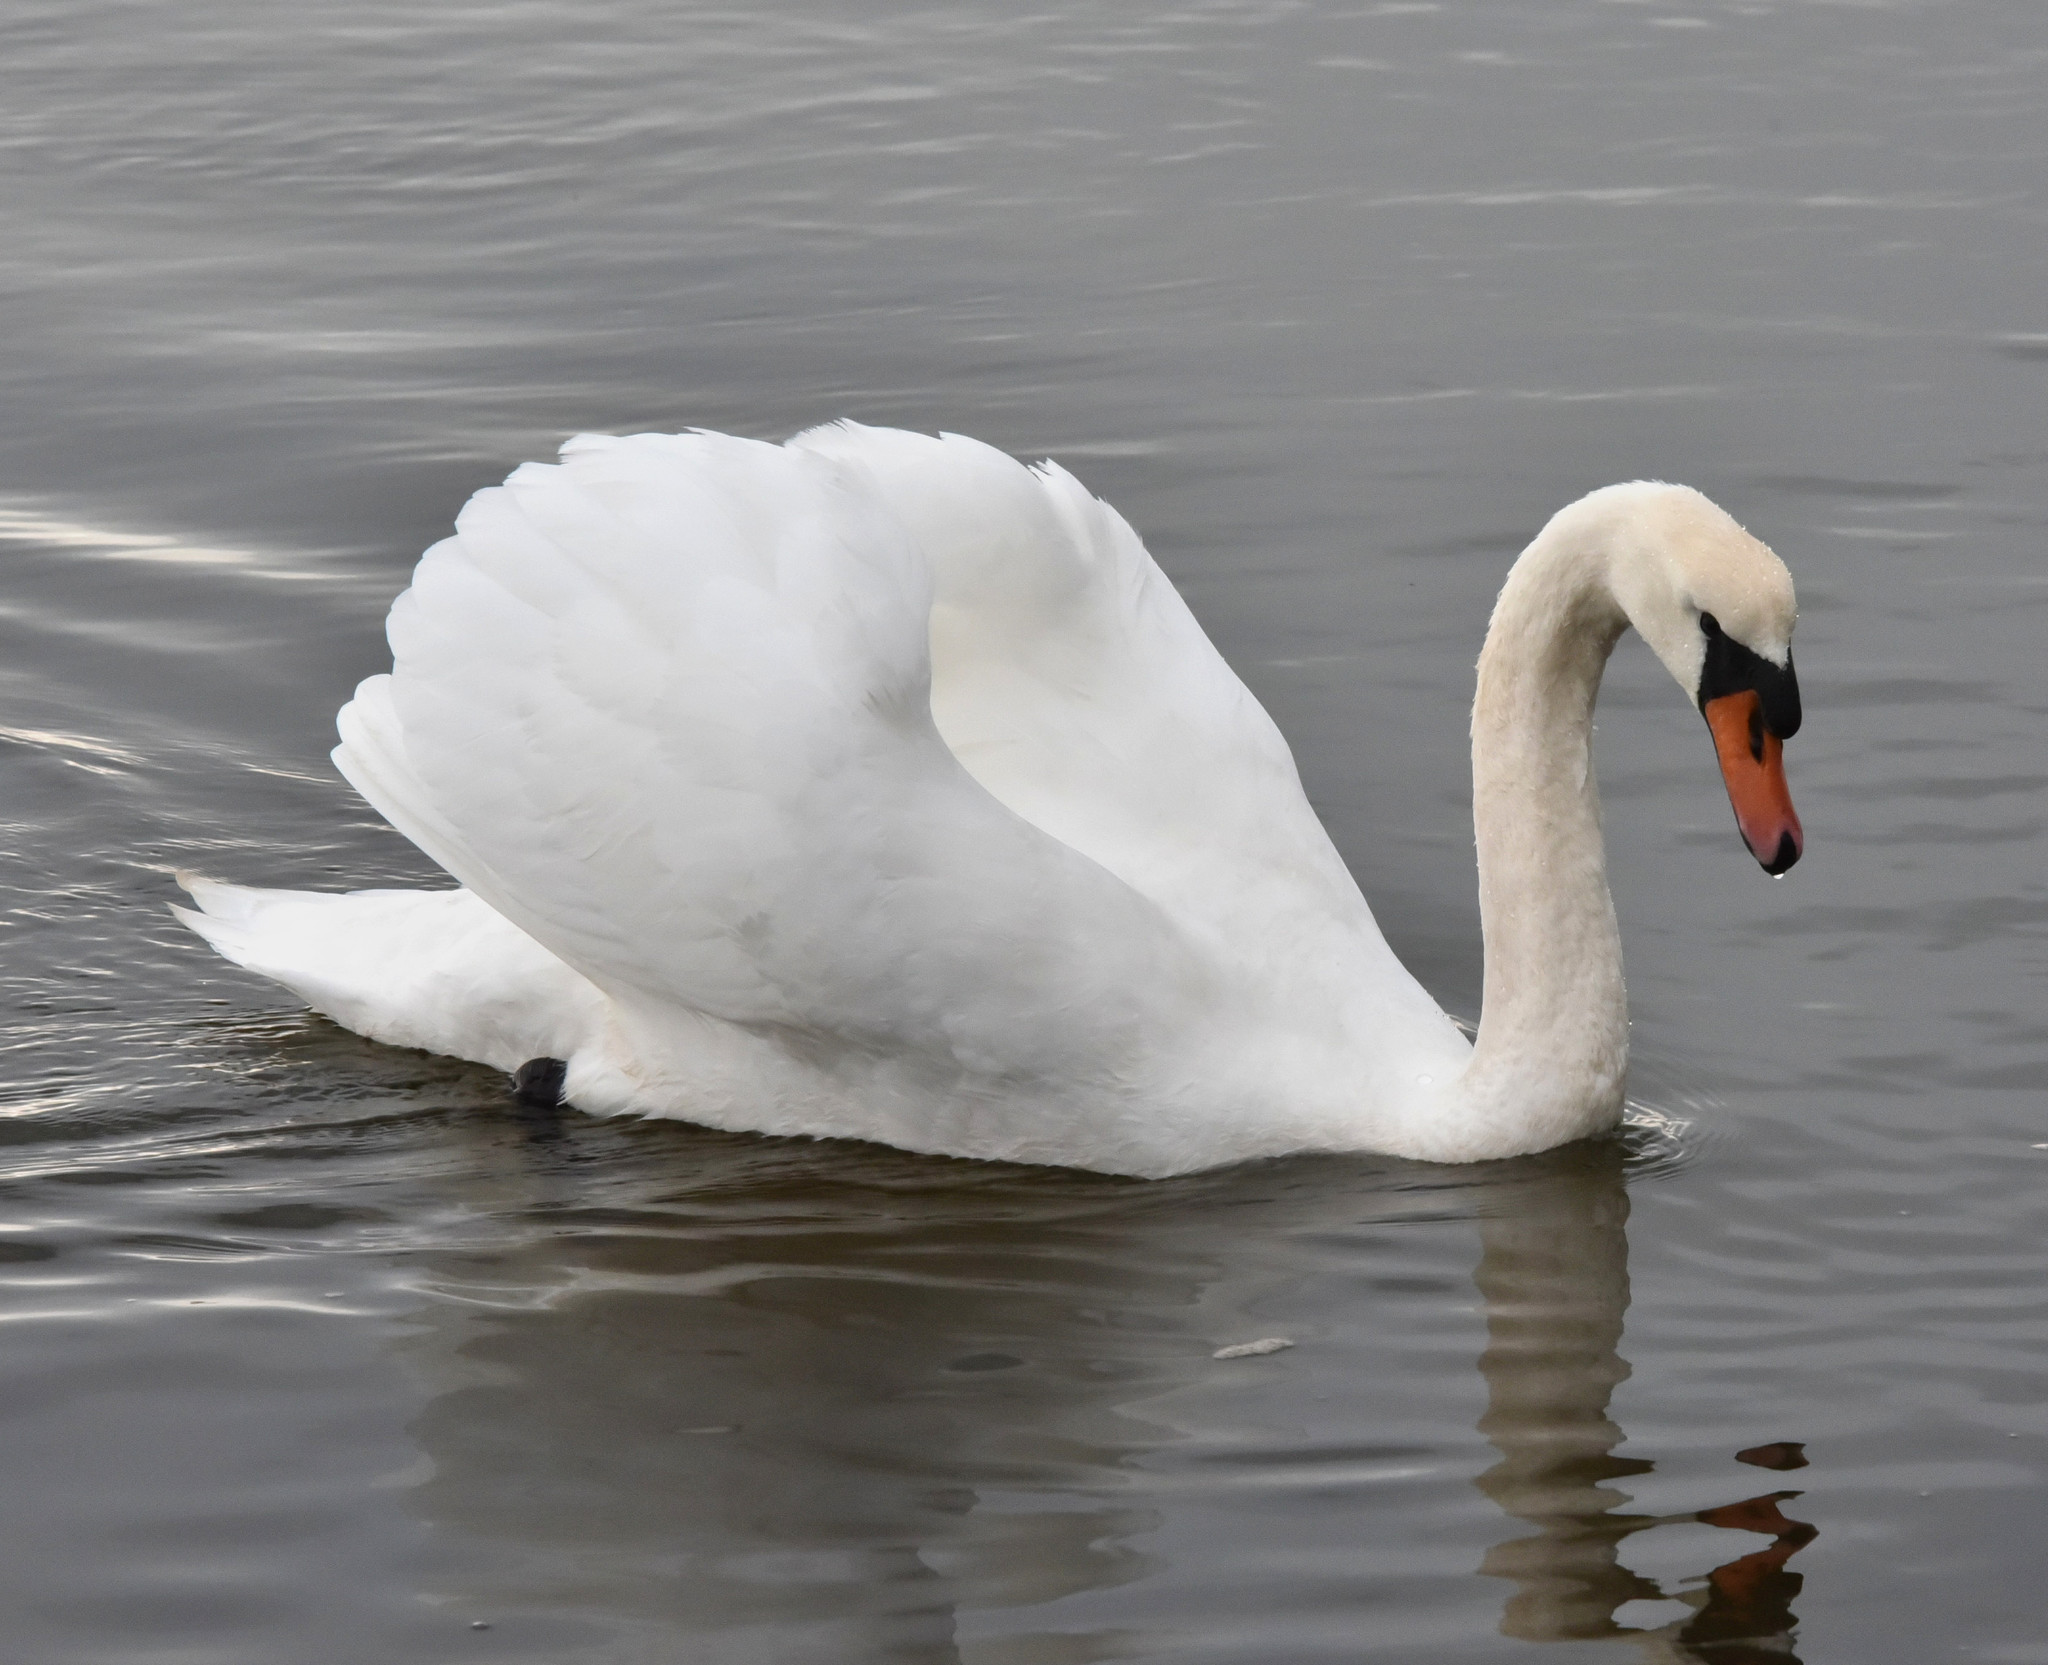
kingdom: Animalia
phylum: Chordata
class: Aves
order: Anseriformes
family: Anatidae
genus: Cygnus
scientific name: Cygnus olor
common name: Mute swan
